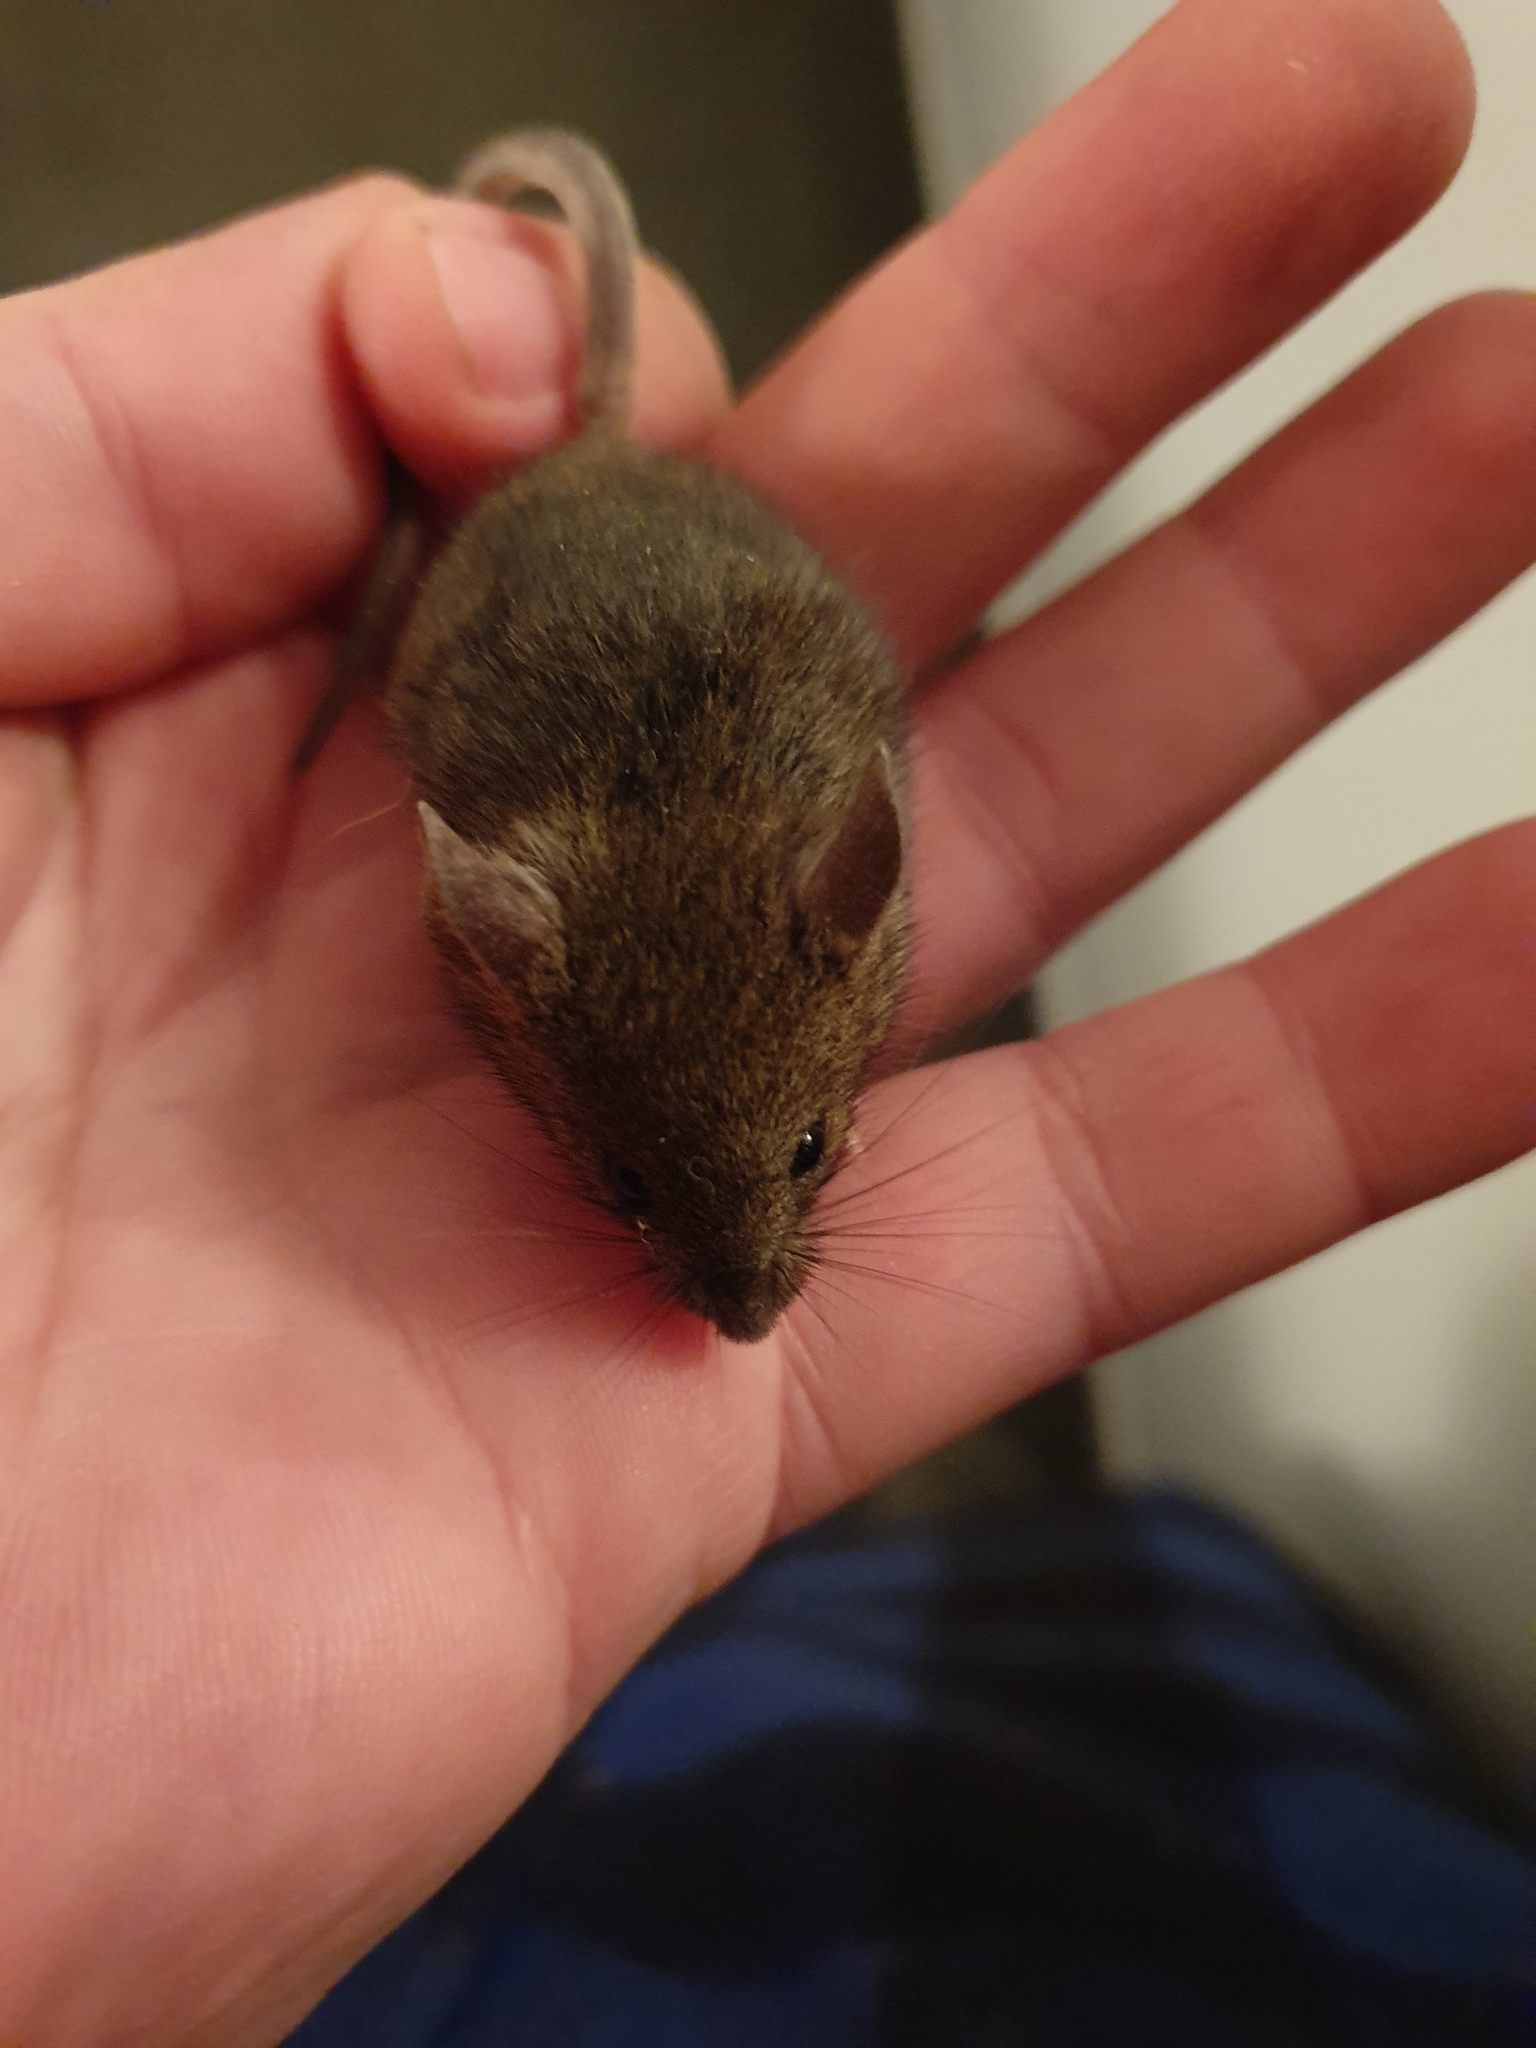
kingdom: Animalia
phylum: Chordata
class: Mammalia
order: Rodentia
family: Muridae
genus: Mus
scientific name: Mus musculus
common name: House mouse
